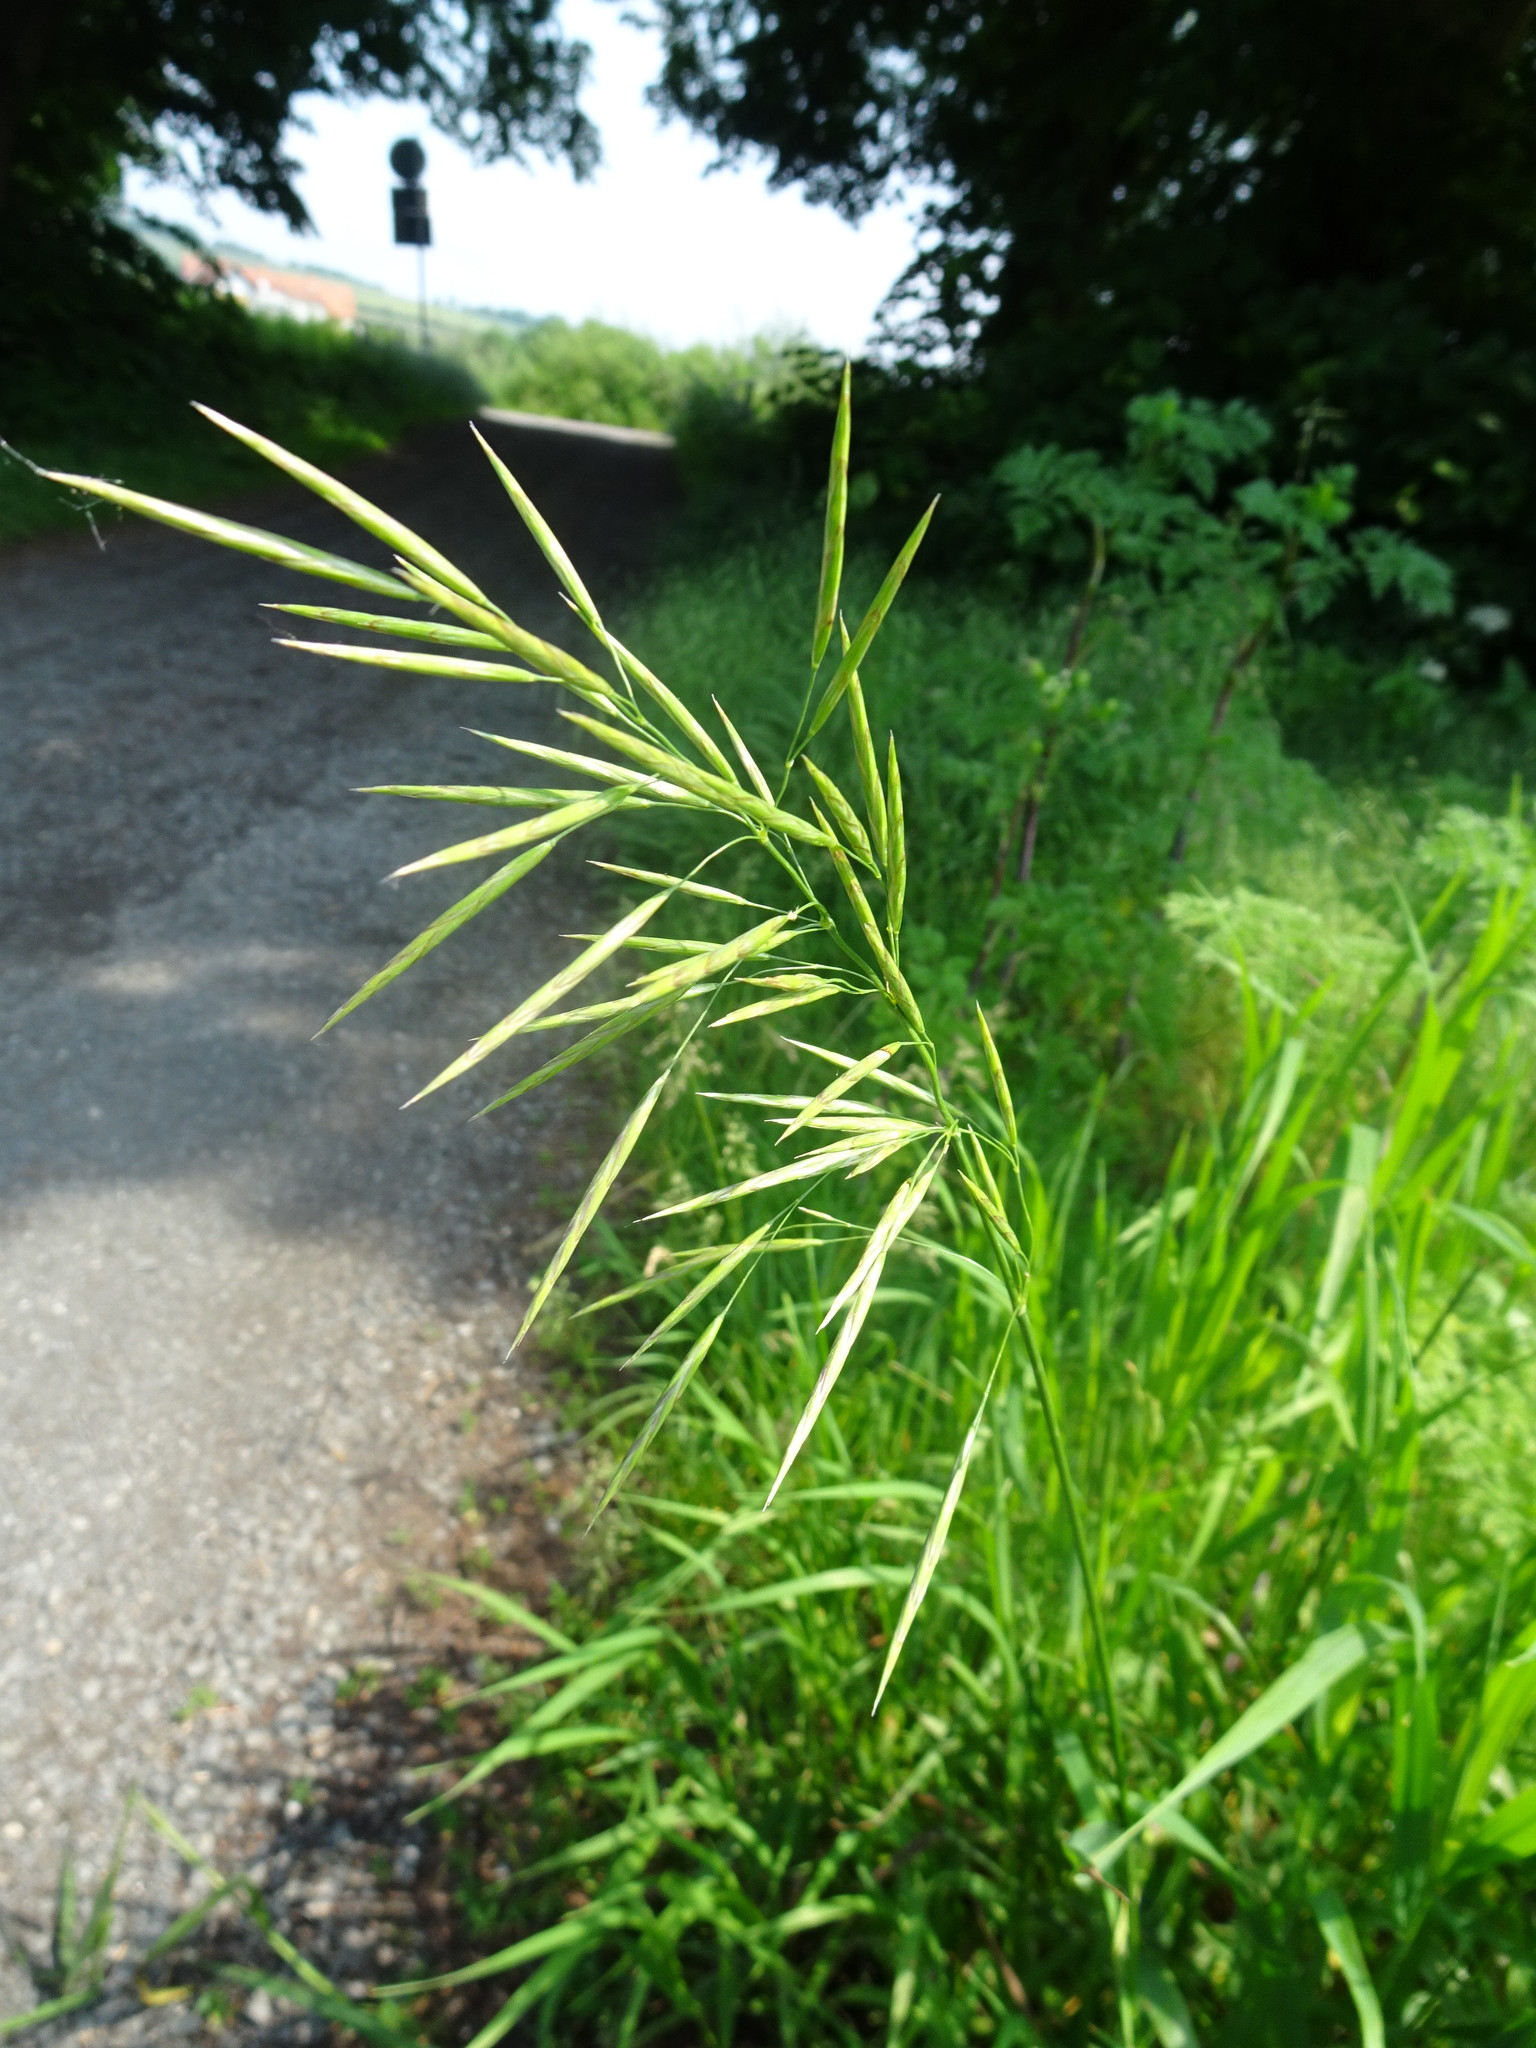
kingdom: Plantae
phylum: Tracheophyta
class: Liliopsida
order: Poales
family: Poaceae
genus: Bromus
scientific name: Bromus inermis
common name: Smooth brome
